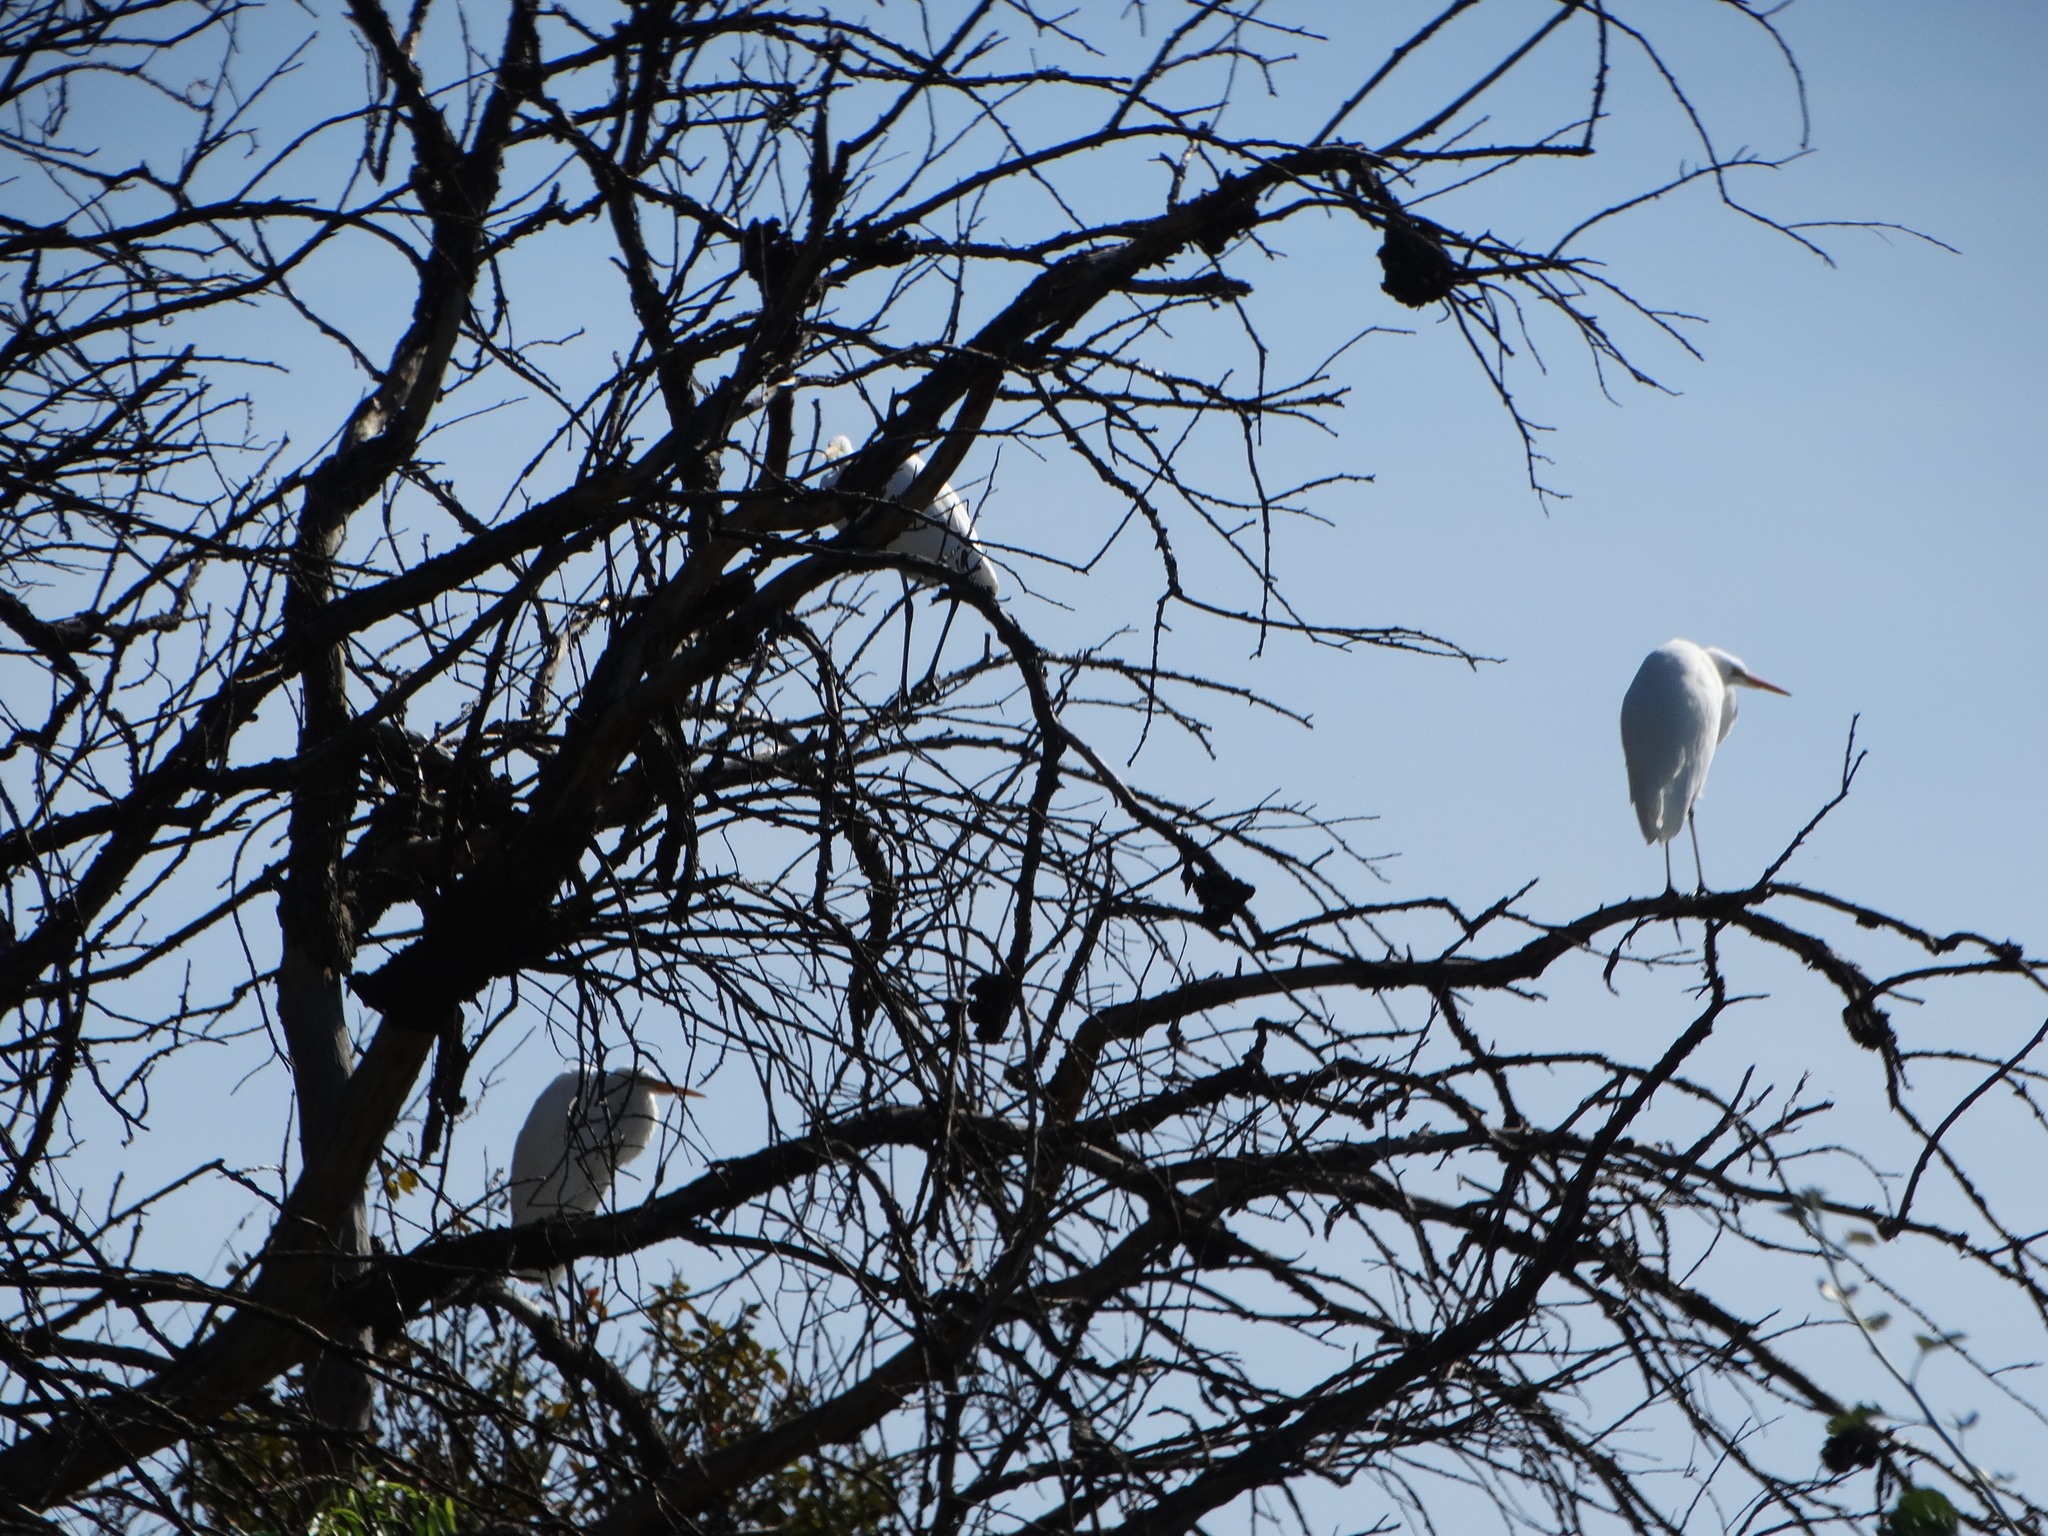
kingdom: Animalia
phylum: Chordata
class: Aves
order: Pelecaniformes
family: Ardeidae
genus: Ardea
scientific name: Ardea alba
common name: Great egret
